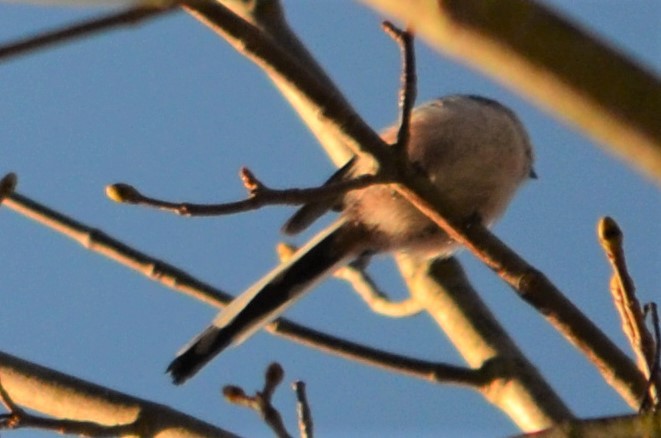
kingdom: Animalia
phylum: Chordata
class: Aves
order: Passeriformes
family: Aegithalidae
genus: Aegithalos
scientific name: Aegithalos caudatus
